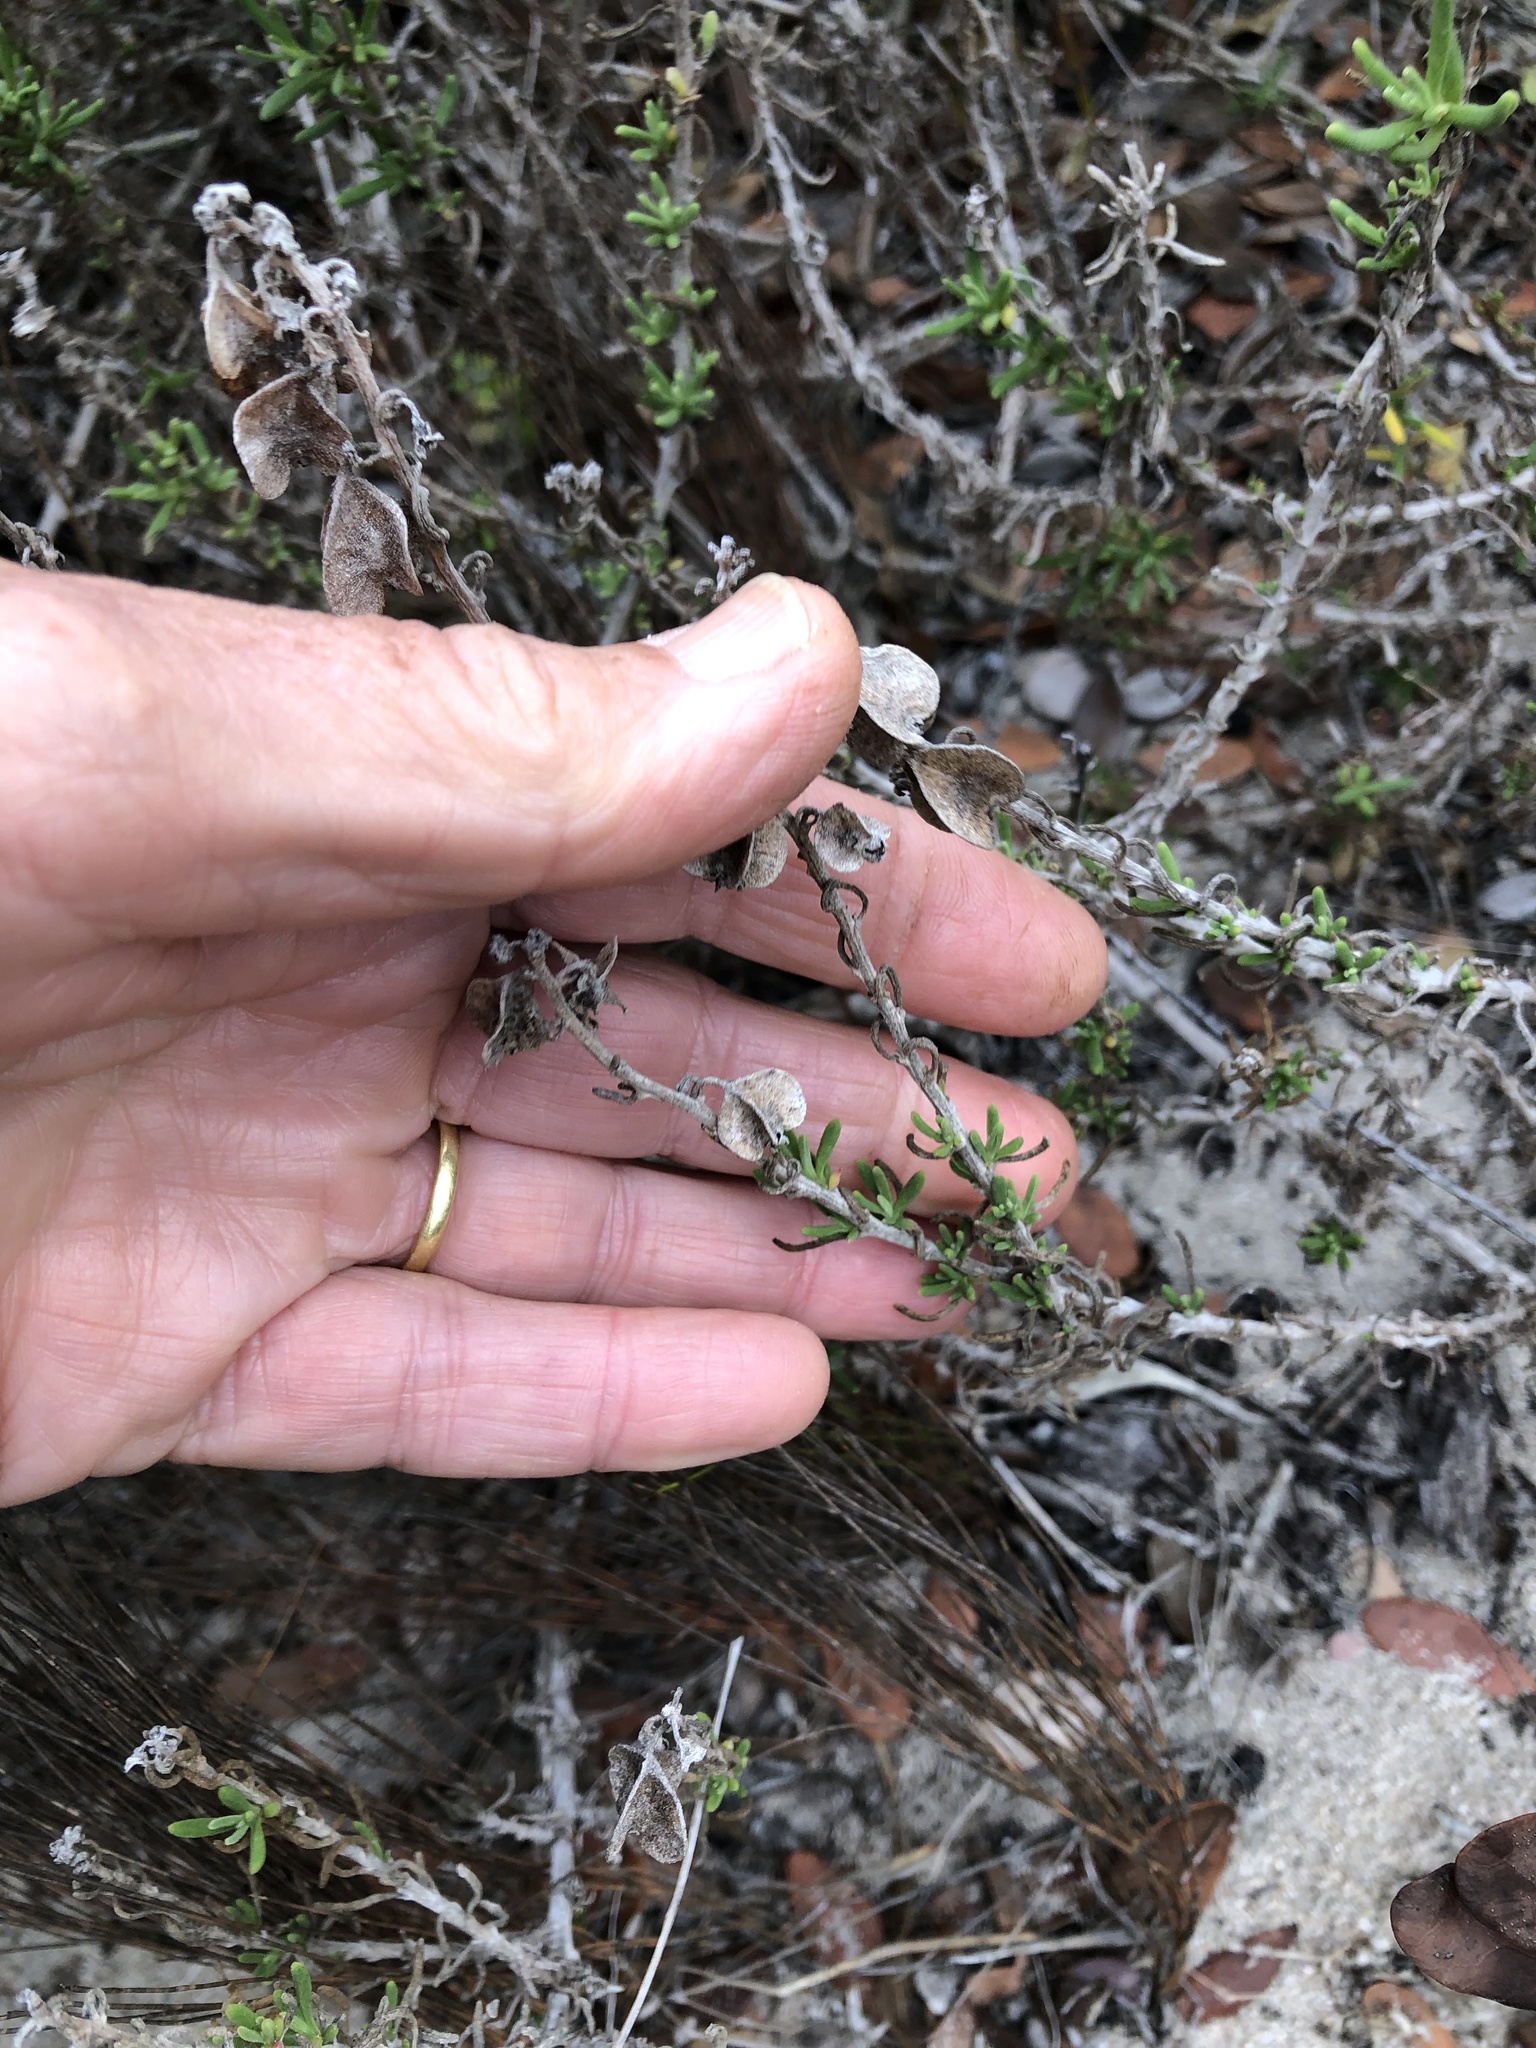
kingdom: Plantae
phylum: Tracheophyta
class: Magnoliopsida
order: Caryophyllales
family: Aizoaceae
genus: Tetragonia
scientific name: Tetragonia fruticosa
